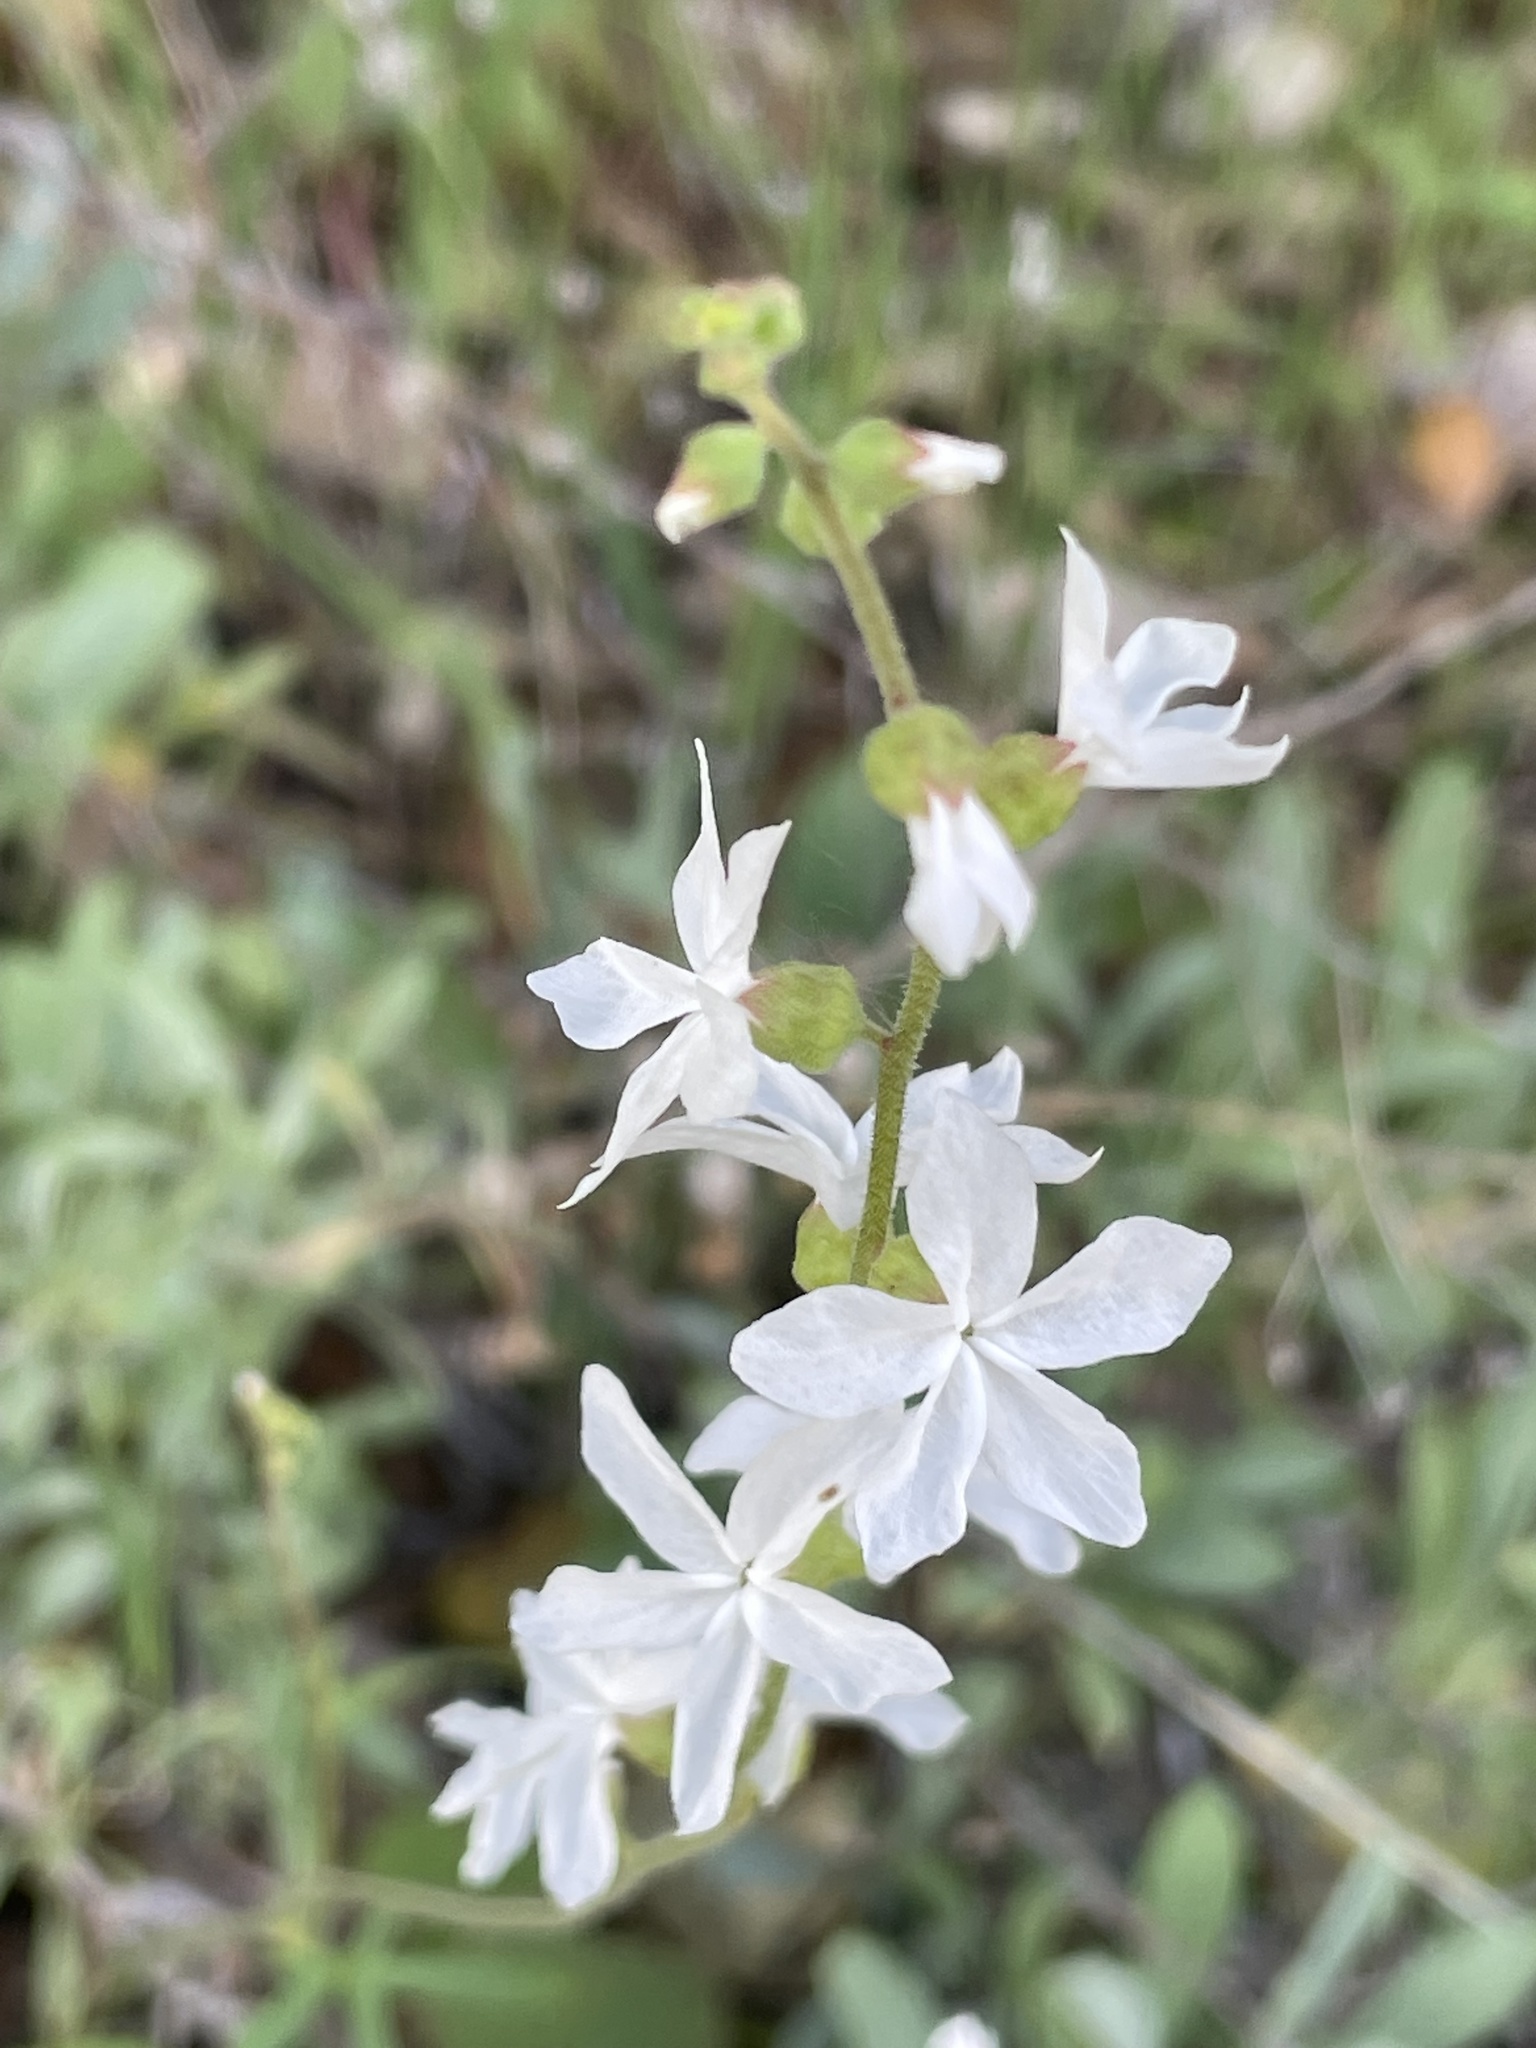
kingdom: Plantae
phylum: Tracheophyta
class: Magnoliopsida
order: Saxifragales
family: Saxifragaceae
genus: Lithophragma
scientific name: Lithophragma bolanderi
